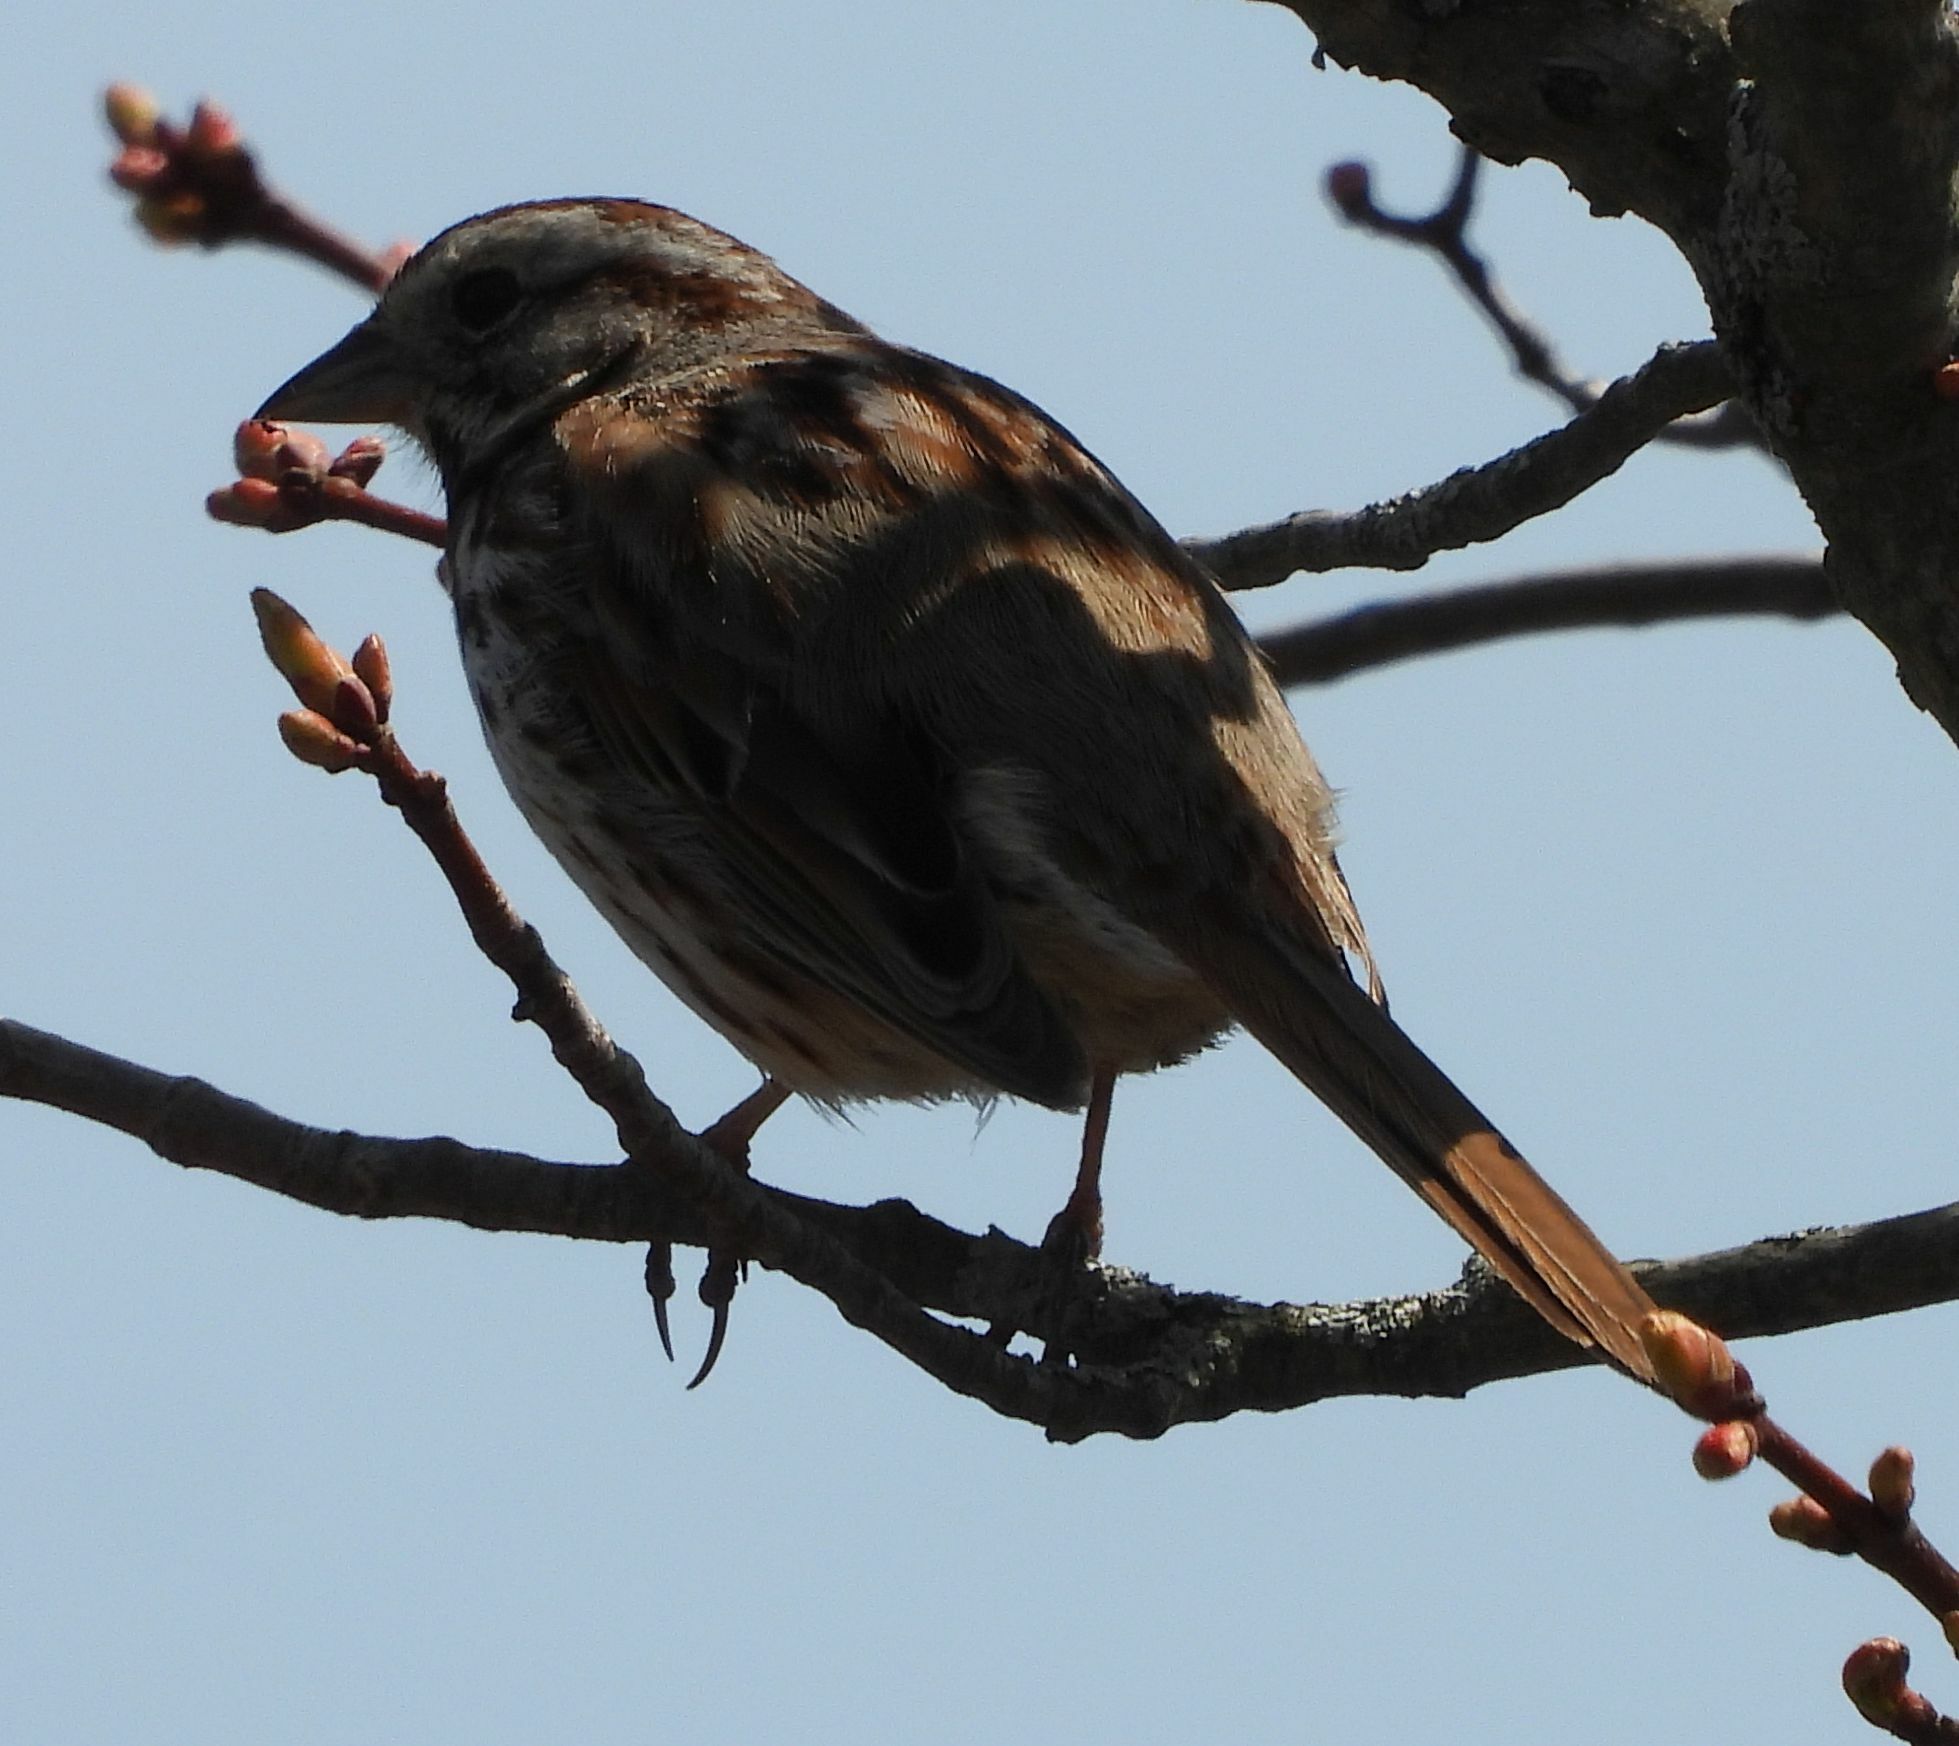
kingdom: Animalia
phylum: Chordata
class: Aves
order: Passeriformes
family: Passerellidae
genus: Melospiza
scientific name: Melospiza melodia
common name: Song sparrow
